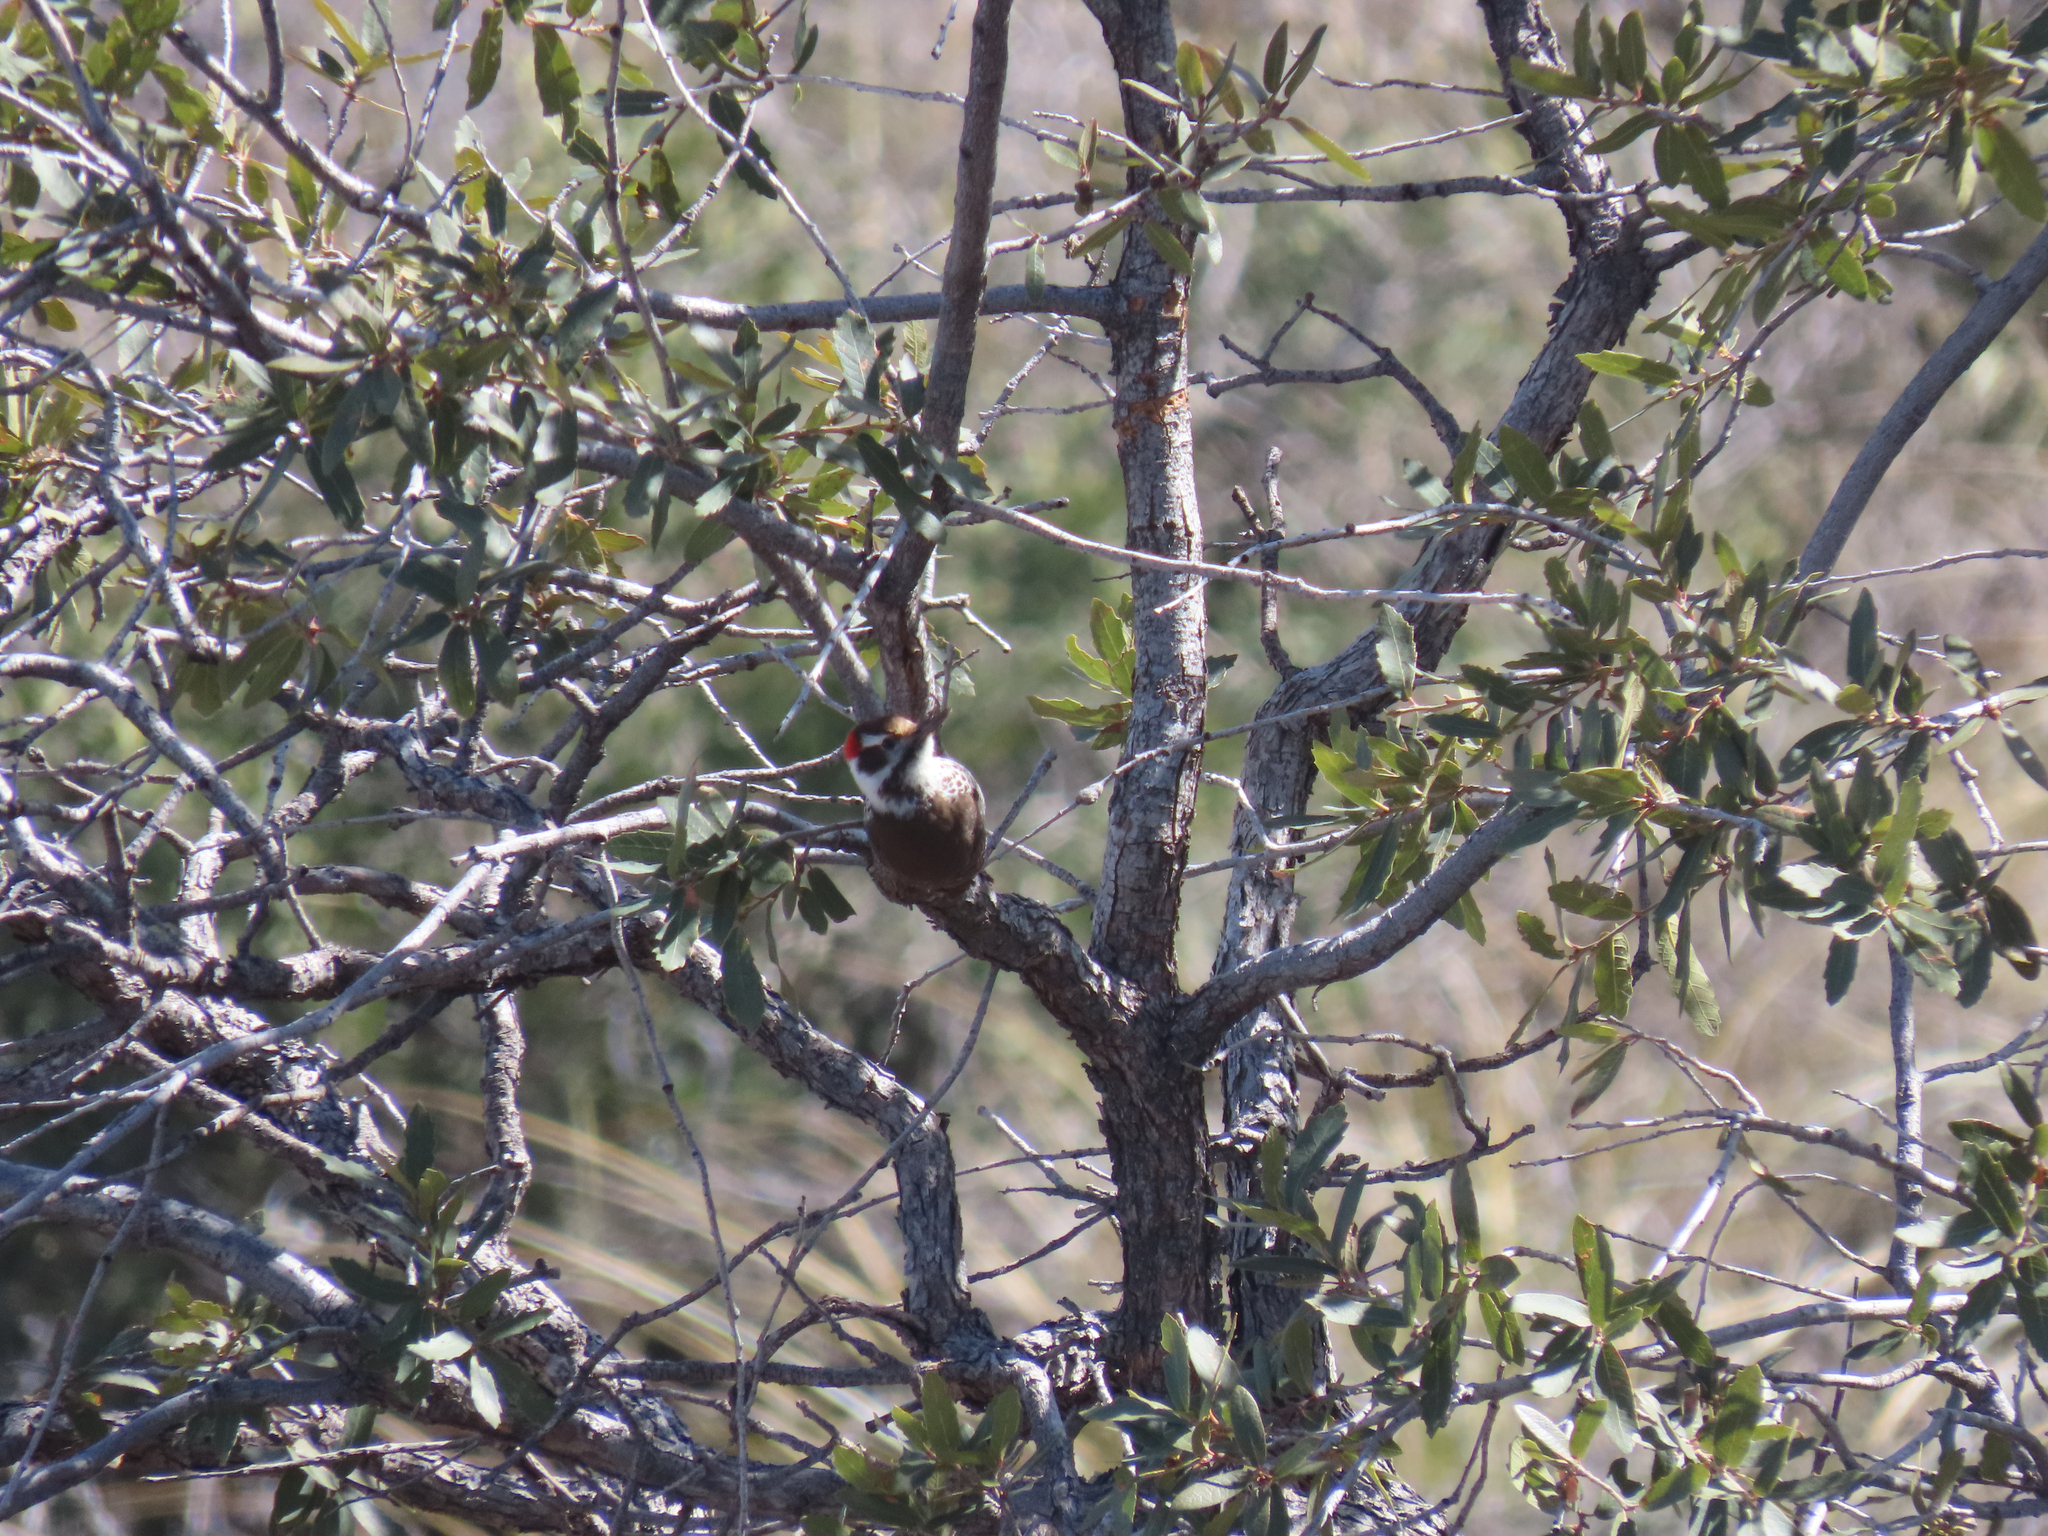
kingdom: Animalia
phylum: Chordata
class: Aves
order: Piciformes
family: Picidae
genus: Leuconotopicus
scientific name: Leuconotopicus arizonae
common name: Arizona woodpecker
